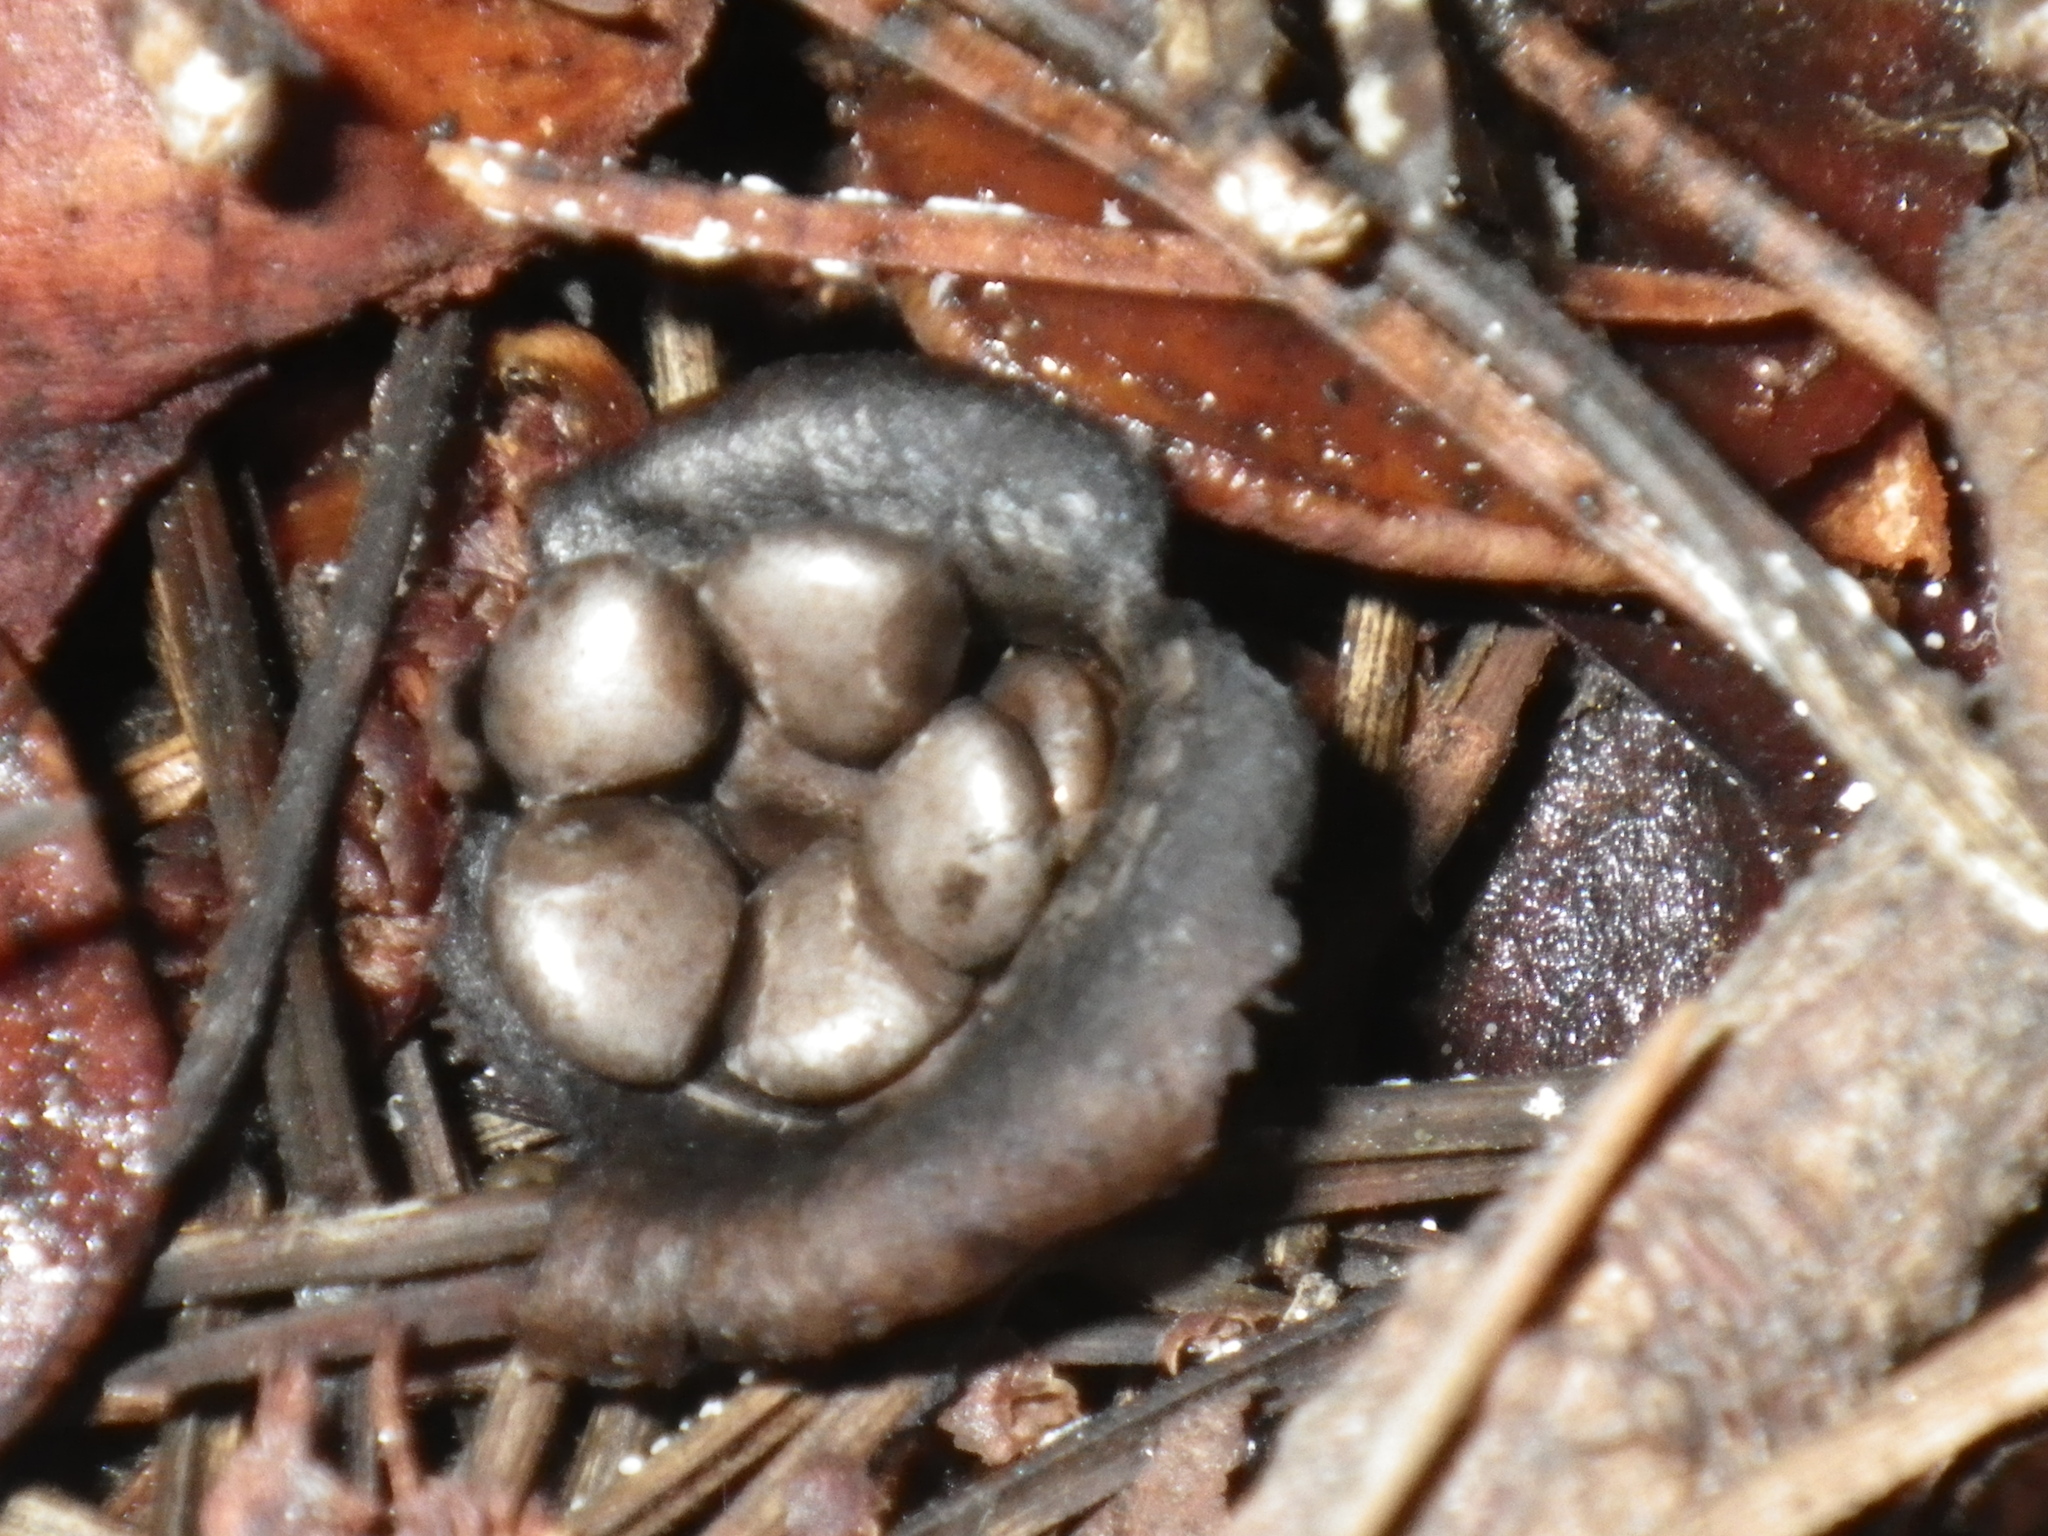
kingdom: Fungi
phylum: Basidiomycota
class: Agaricomycetes
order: Agaricales
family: Agaricaceae
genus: Cyathus
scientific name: Cyathus olla
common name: Field bird's nest
